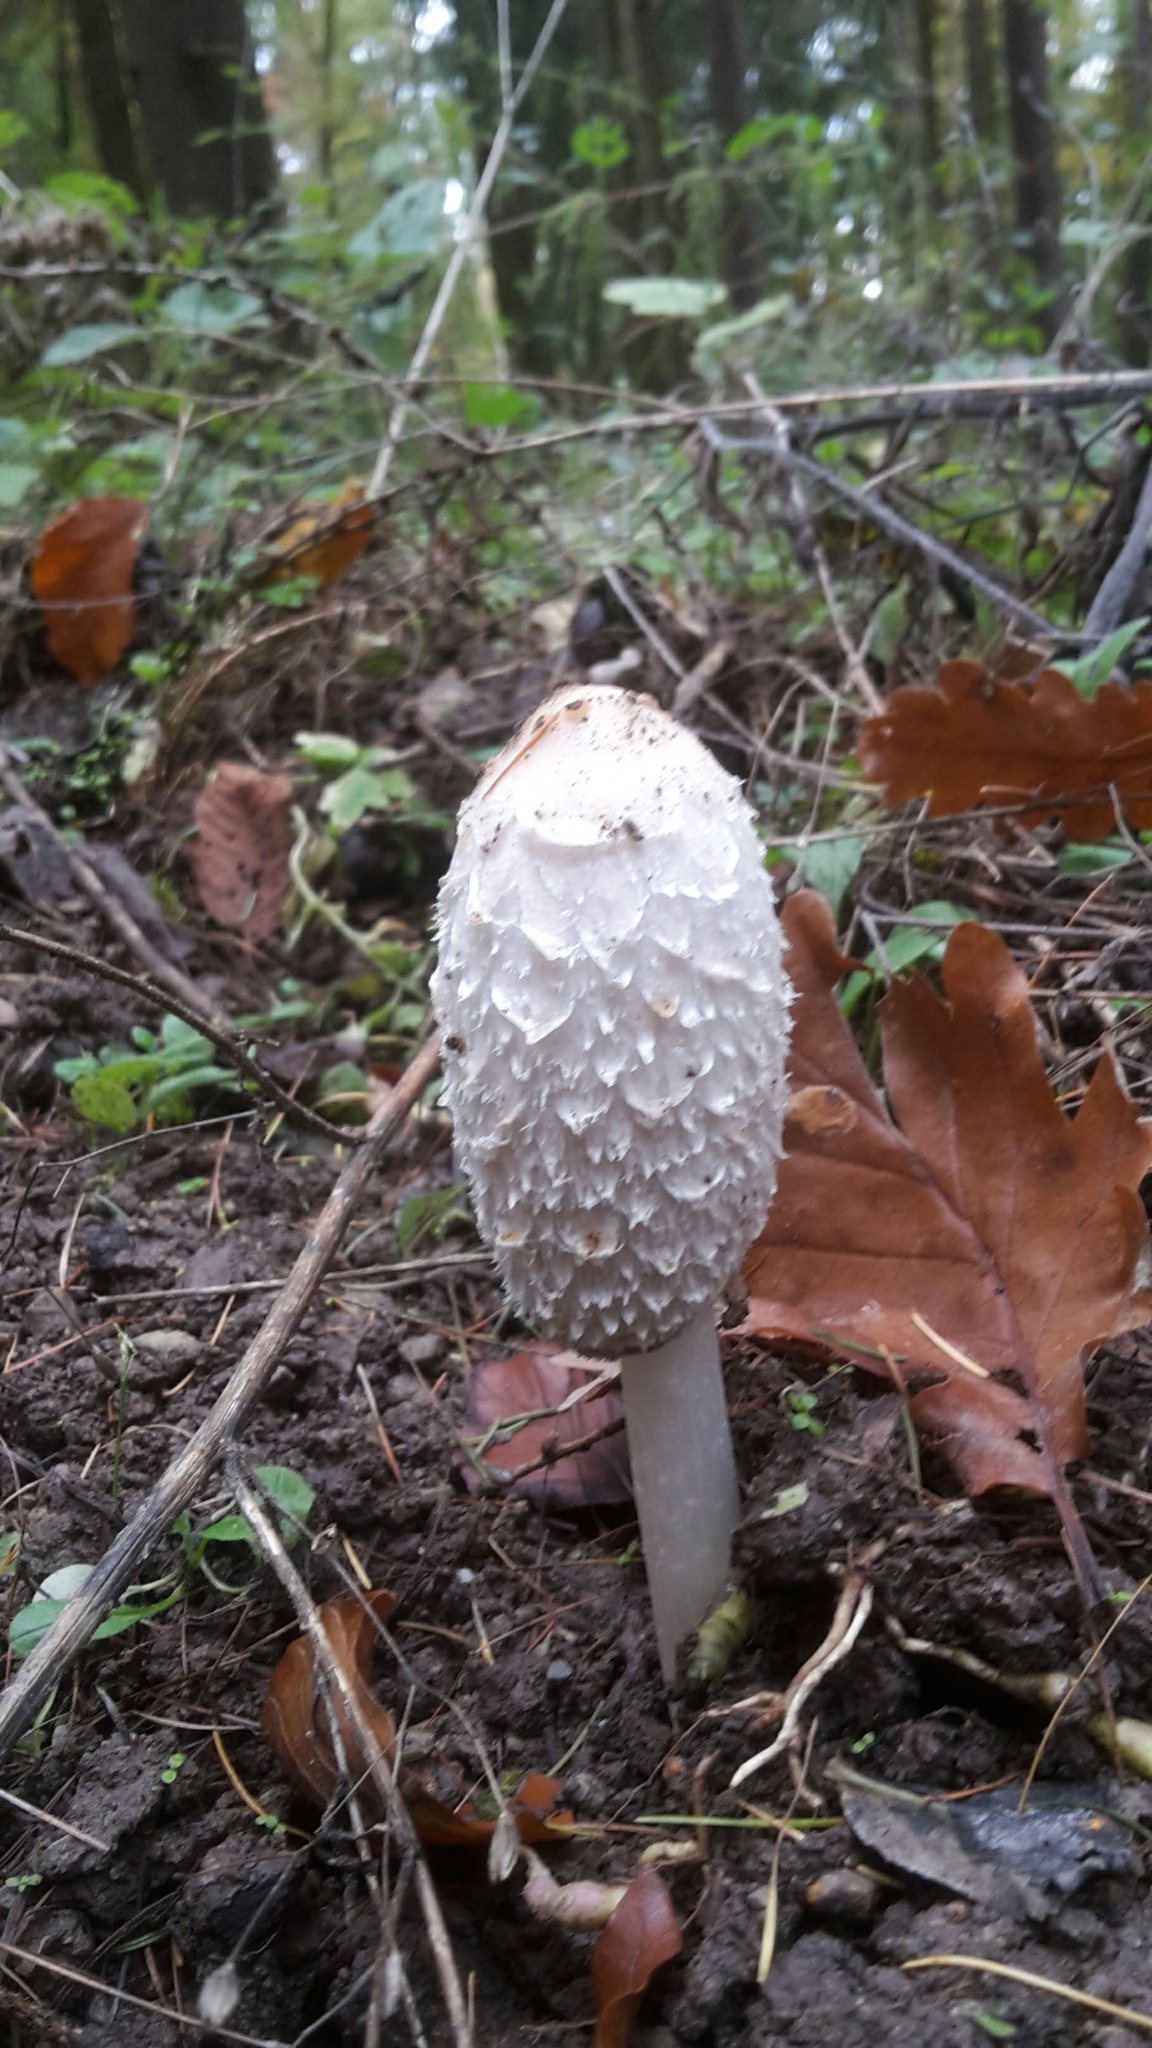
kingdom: Fungi
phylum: Basidiomycota
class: Agaricomycetes
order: Agaricales
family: Agaricaceae
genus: Coprinus
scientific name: Coprinus comatus
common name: Lawyer's wig
